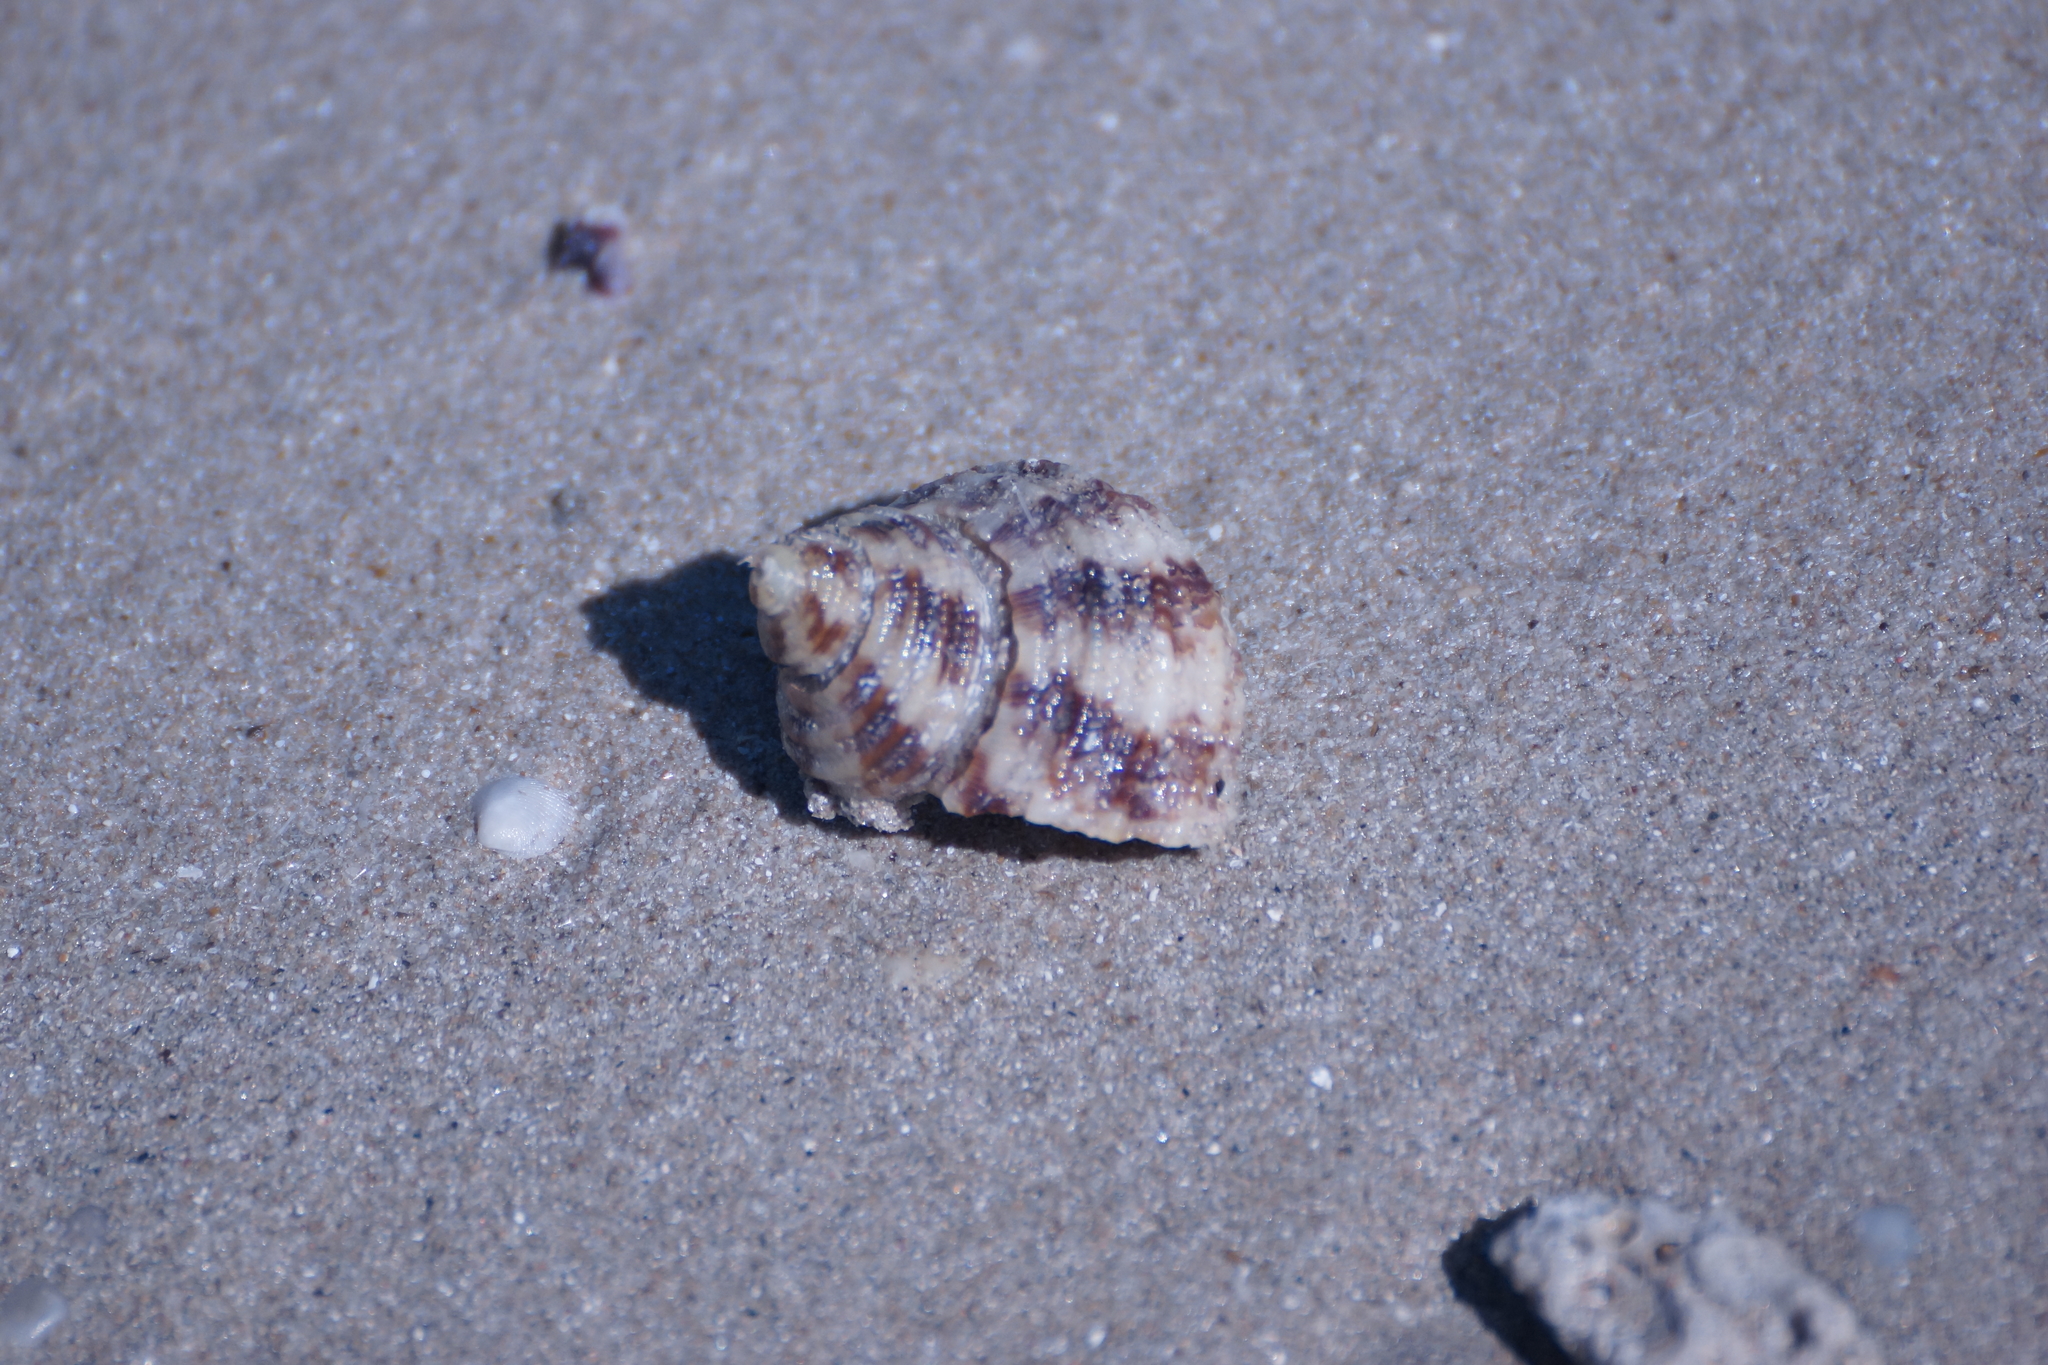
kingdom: Animalia
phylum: Mollusca
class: Gastropoda
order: Trochida
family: Turbinidae
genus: Turbo
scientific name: Turbo laminiferus
